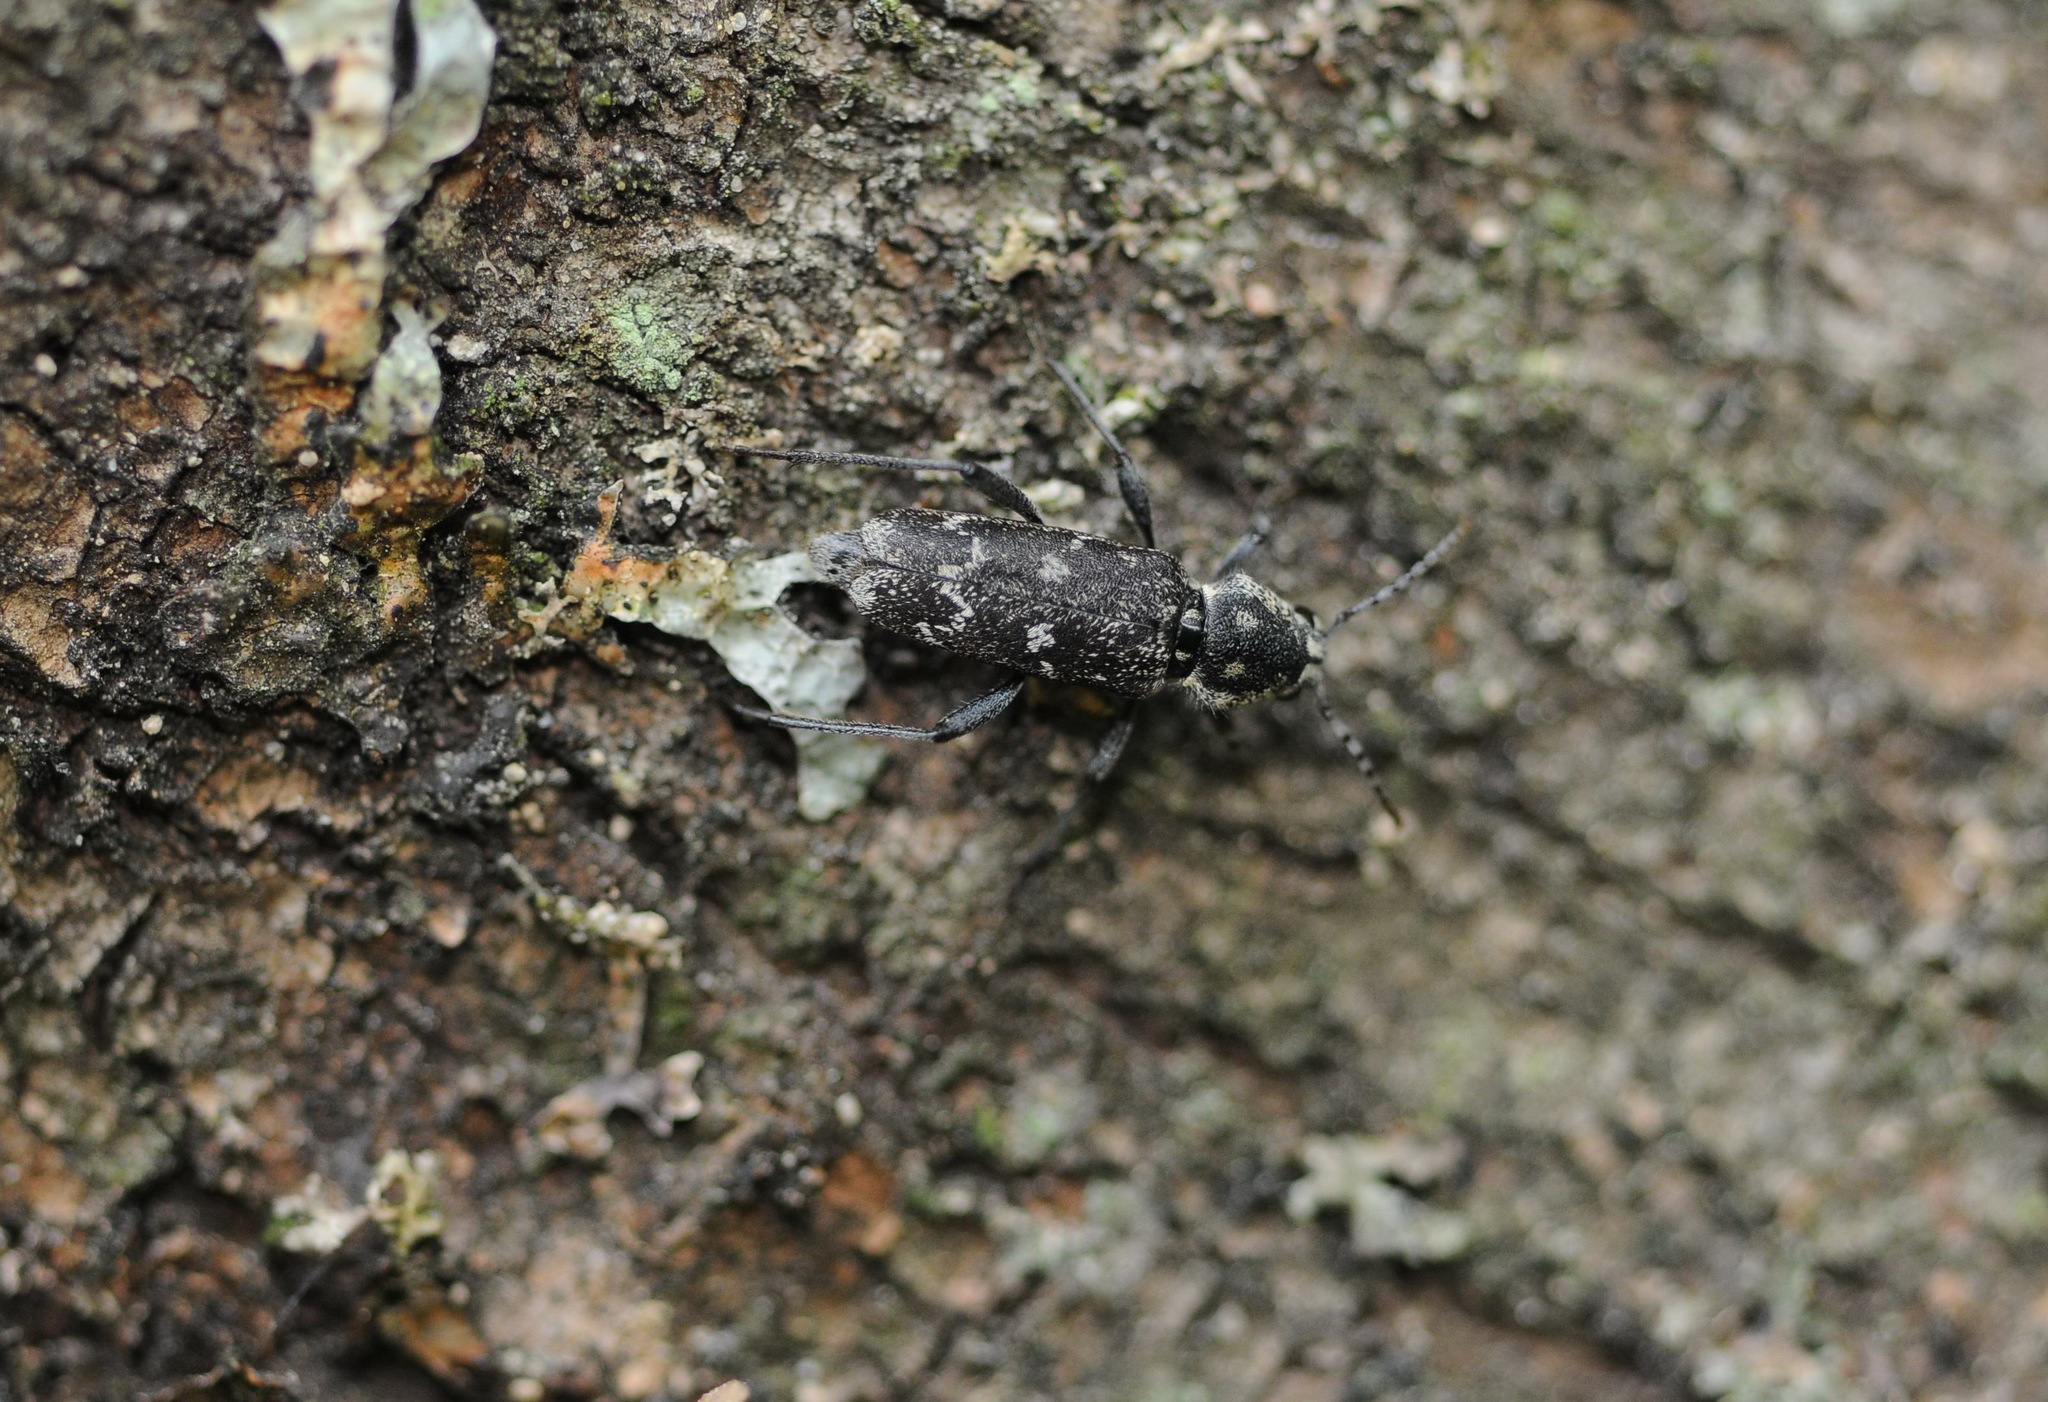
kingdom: Animalia
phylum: Arthropoda
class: Insecta
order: Coleoptera
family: Cerambycidae
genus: Xylotrechus
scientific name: Xylotrechus rusticus
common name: Grey tiger long-horned beetle
